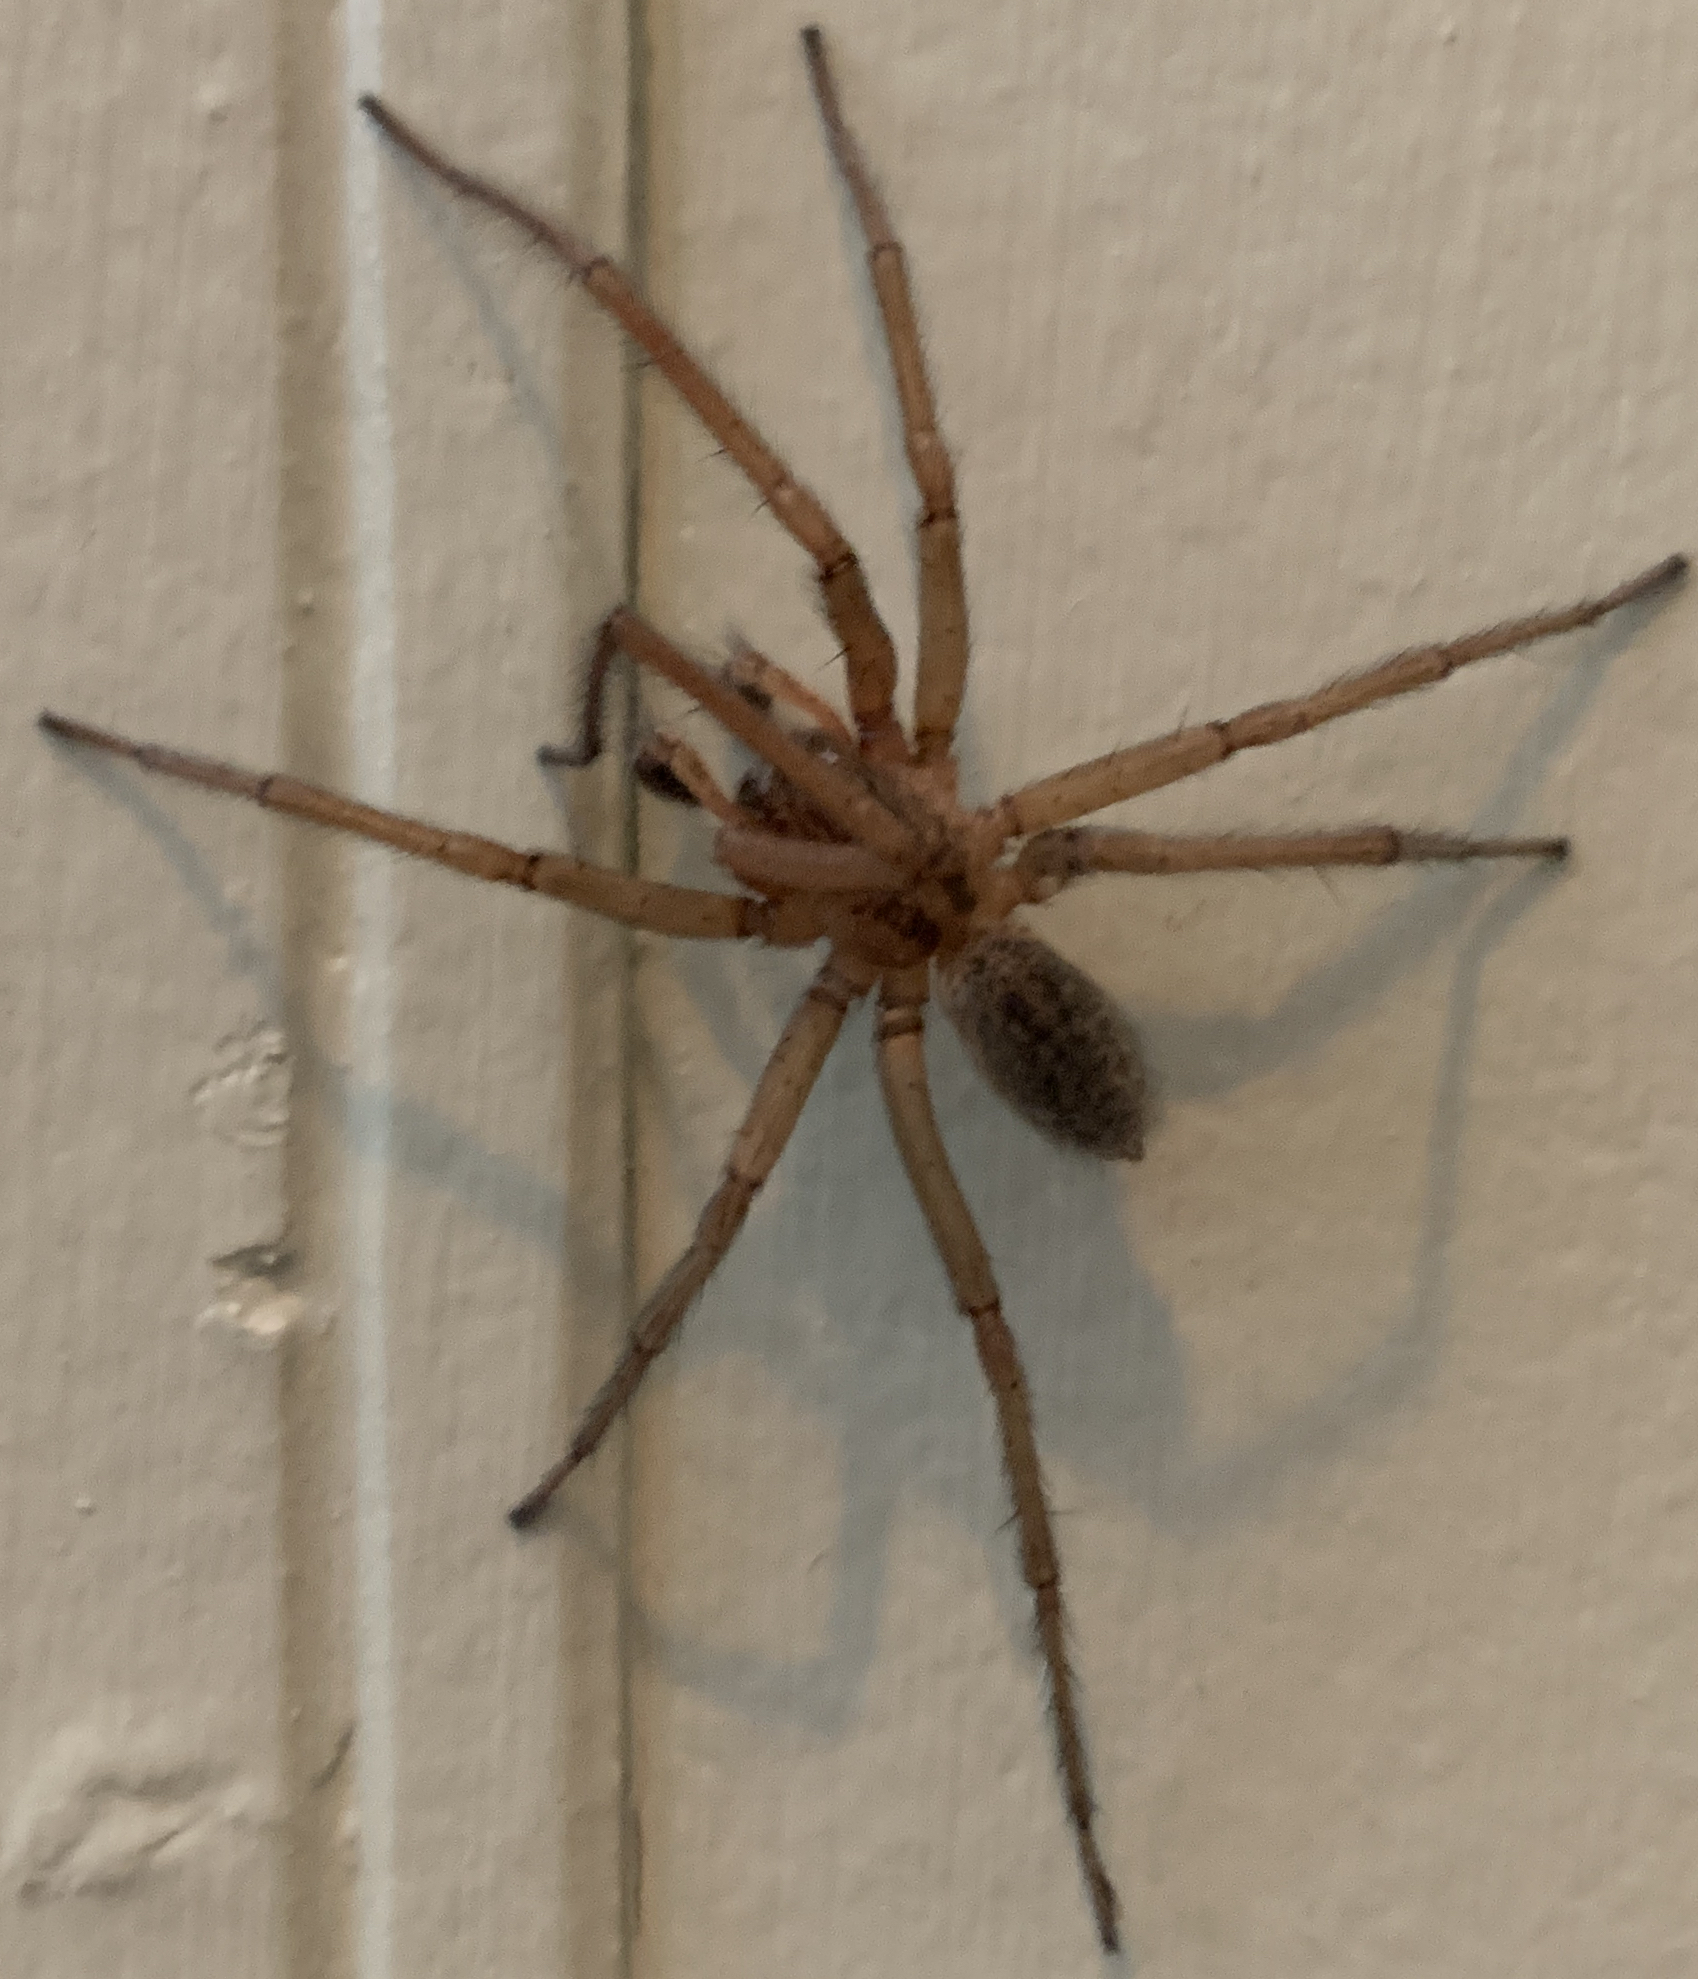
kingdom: Animalia
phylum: Arthropoda
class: Arachnida
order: Araneae
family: Agelenidae
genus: Eratigena
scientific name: Eratigena agrestis
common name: Hobo spider
